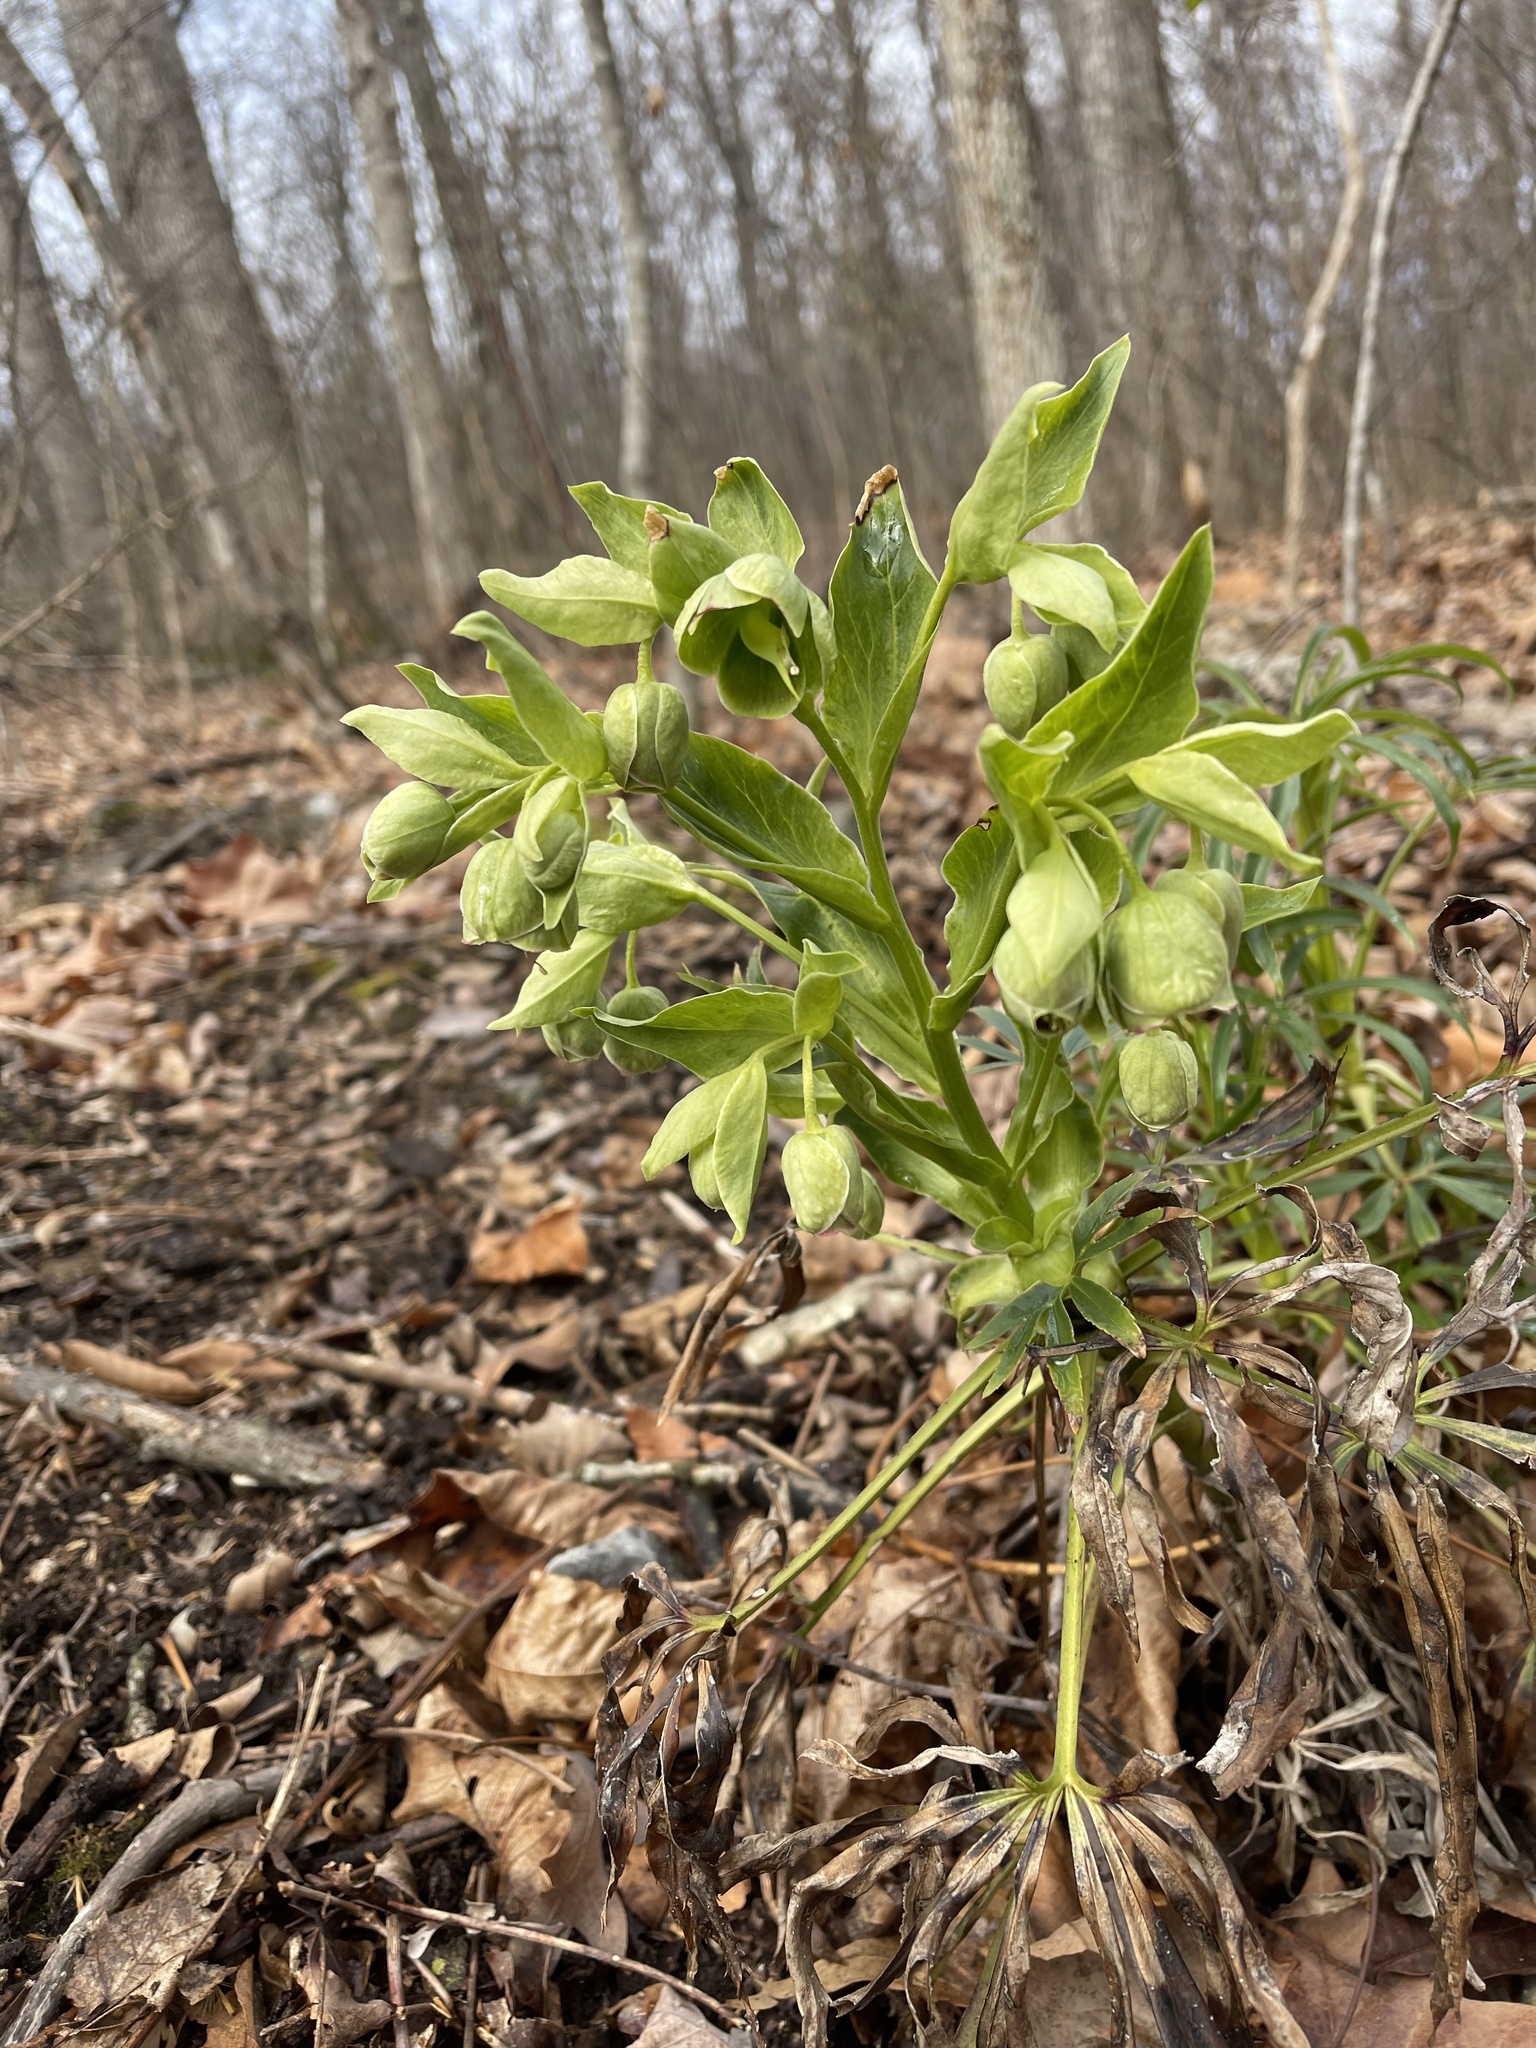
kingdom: Plantae
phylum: Tracheophyta
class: Magnoliopsida
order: Ranunculales
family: Ranunculaceae
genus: Helleborus
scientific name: Helleborus foetidus
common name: Stinking hellebore
